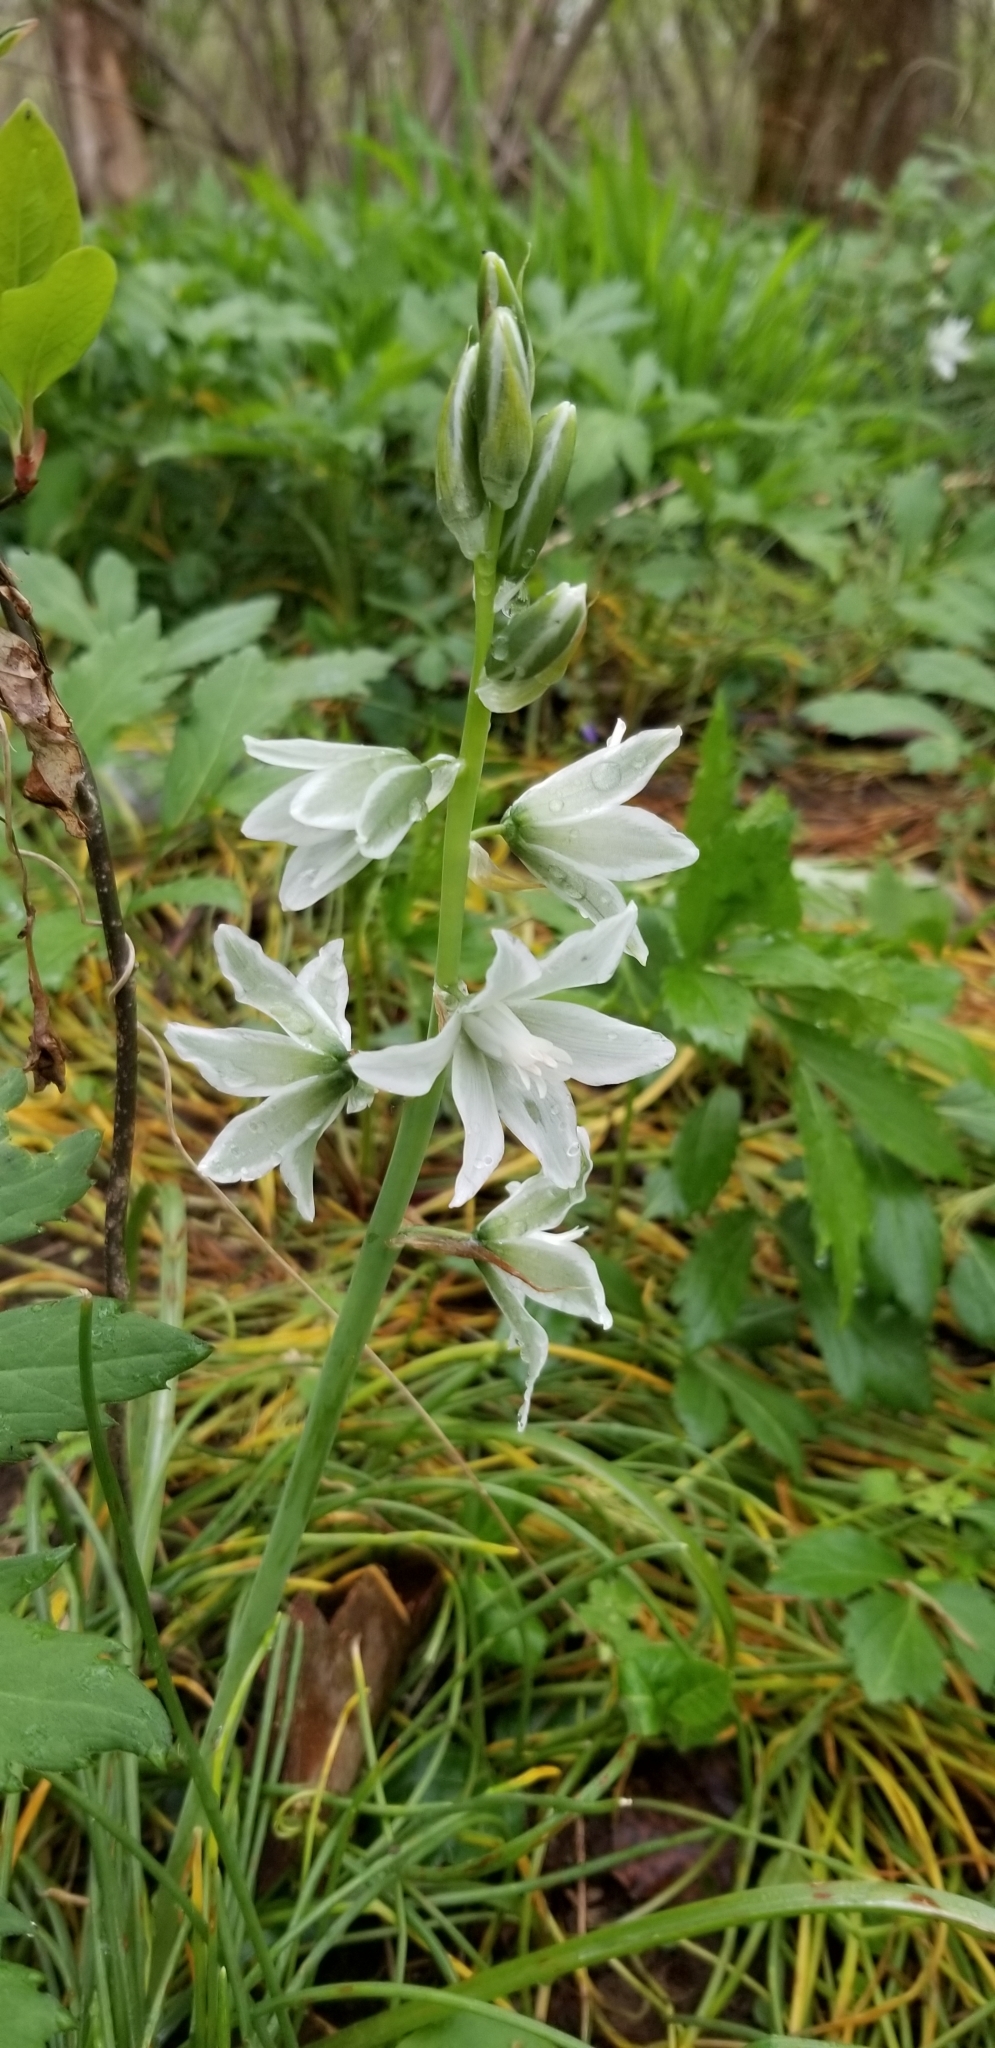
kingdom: Plantae
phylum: Tracheophyta
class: Liliopsida
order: Asparagales
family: Asparagaceae
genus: Ornithogalum
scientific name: Ornithogalum nutans
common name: Drooping star-of-bethlehem
